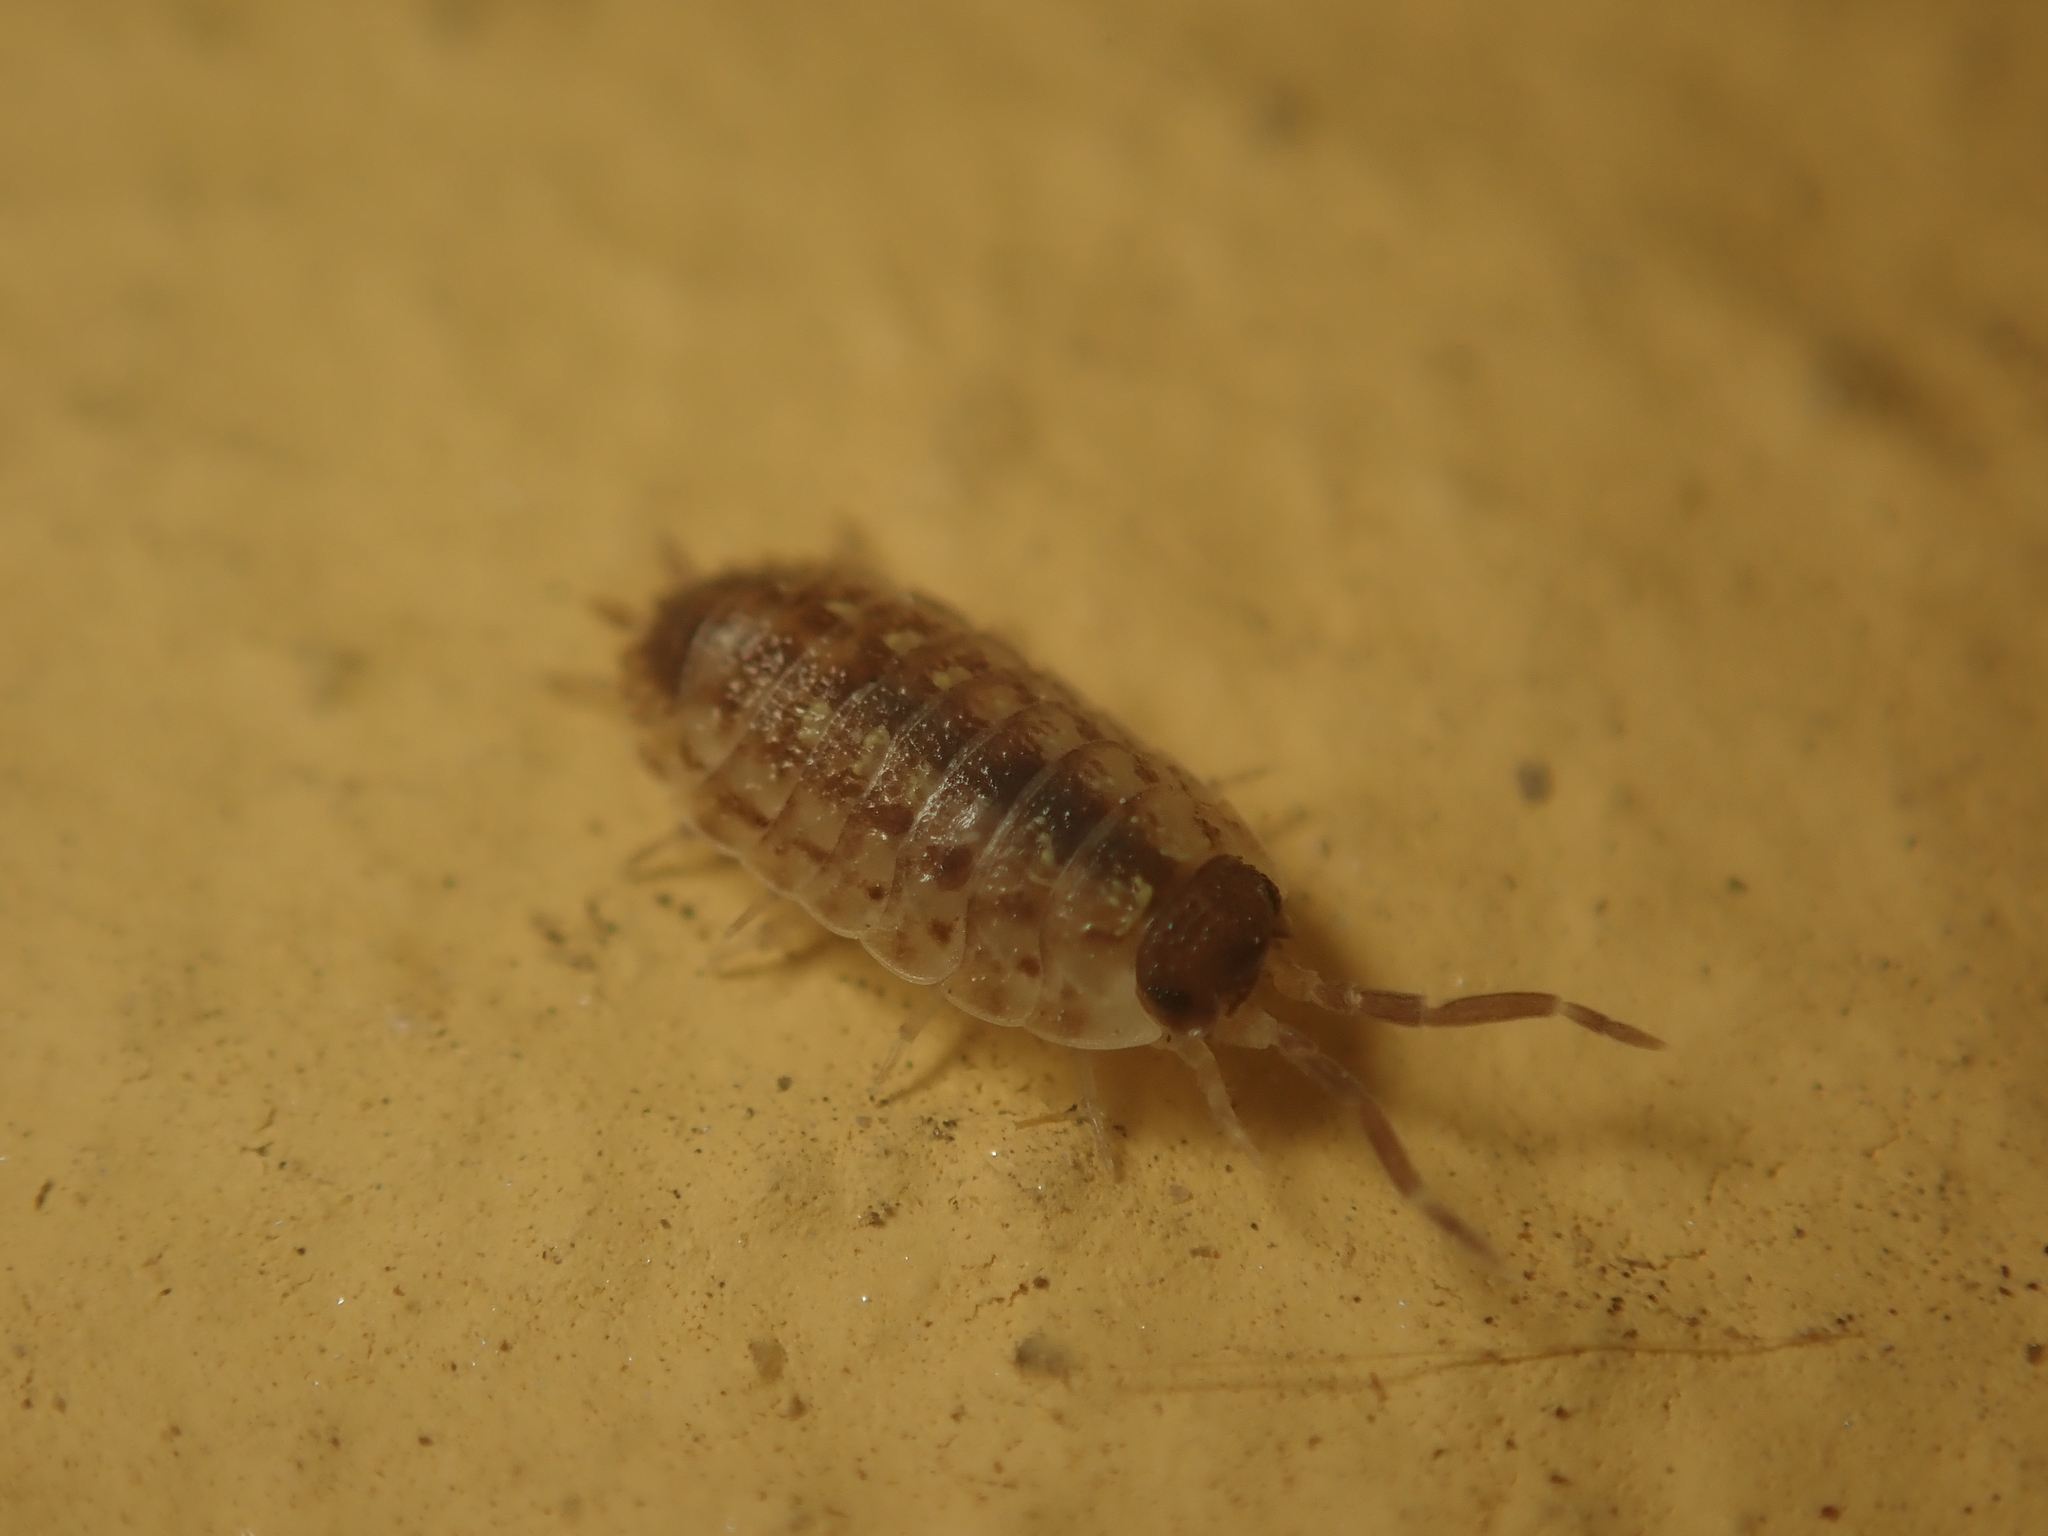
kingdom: Animalia
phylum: Arthropoda
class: Malacostraca
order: Isopoda
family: Porcellionidae
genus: Porcellio
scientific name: Porcellio spinicornis
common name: Painted woodlouse
